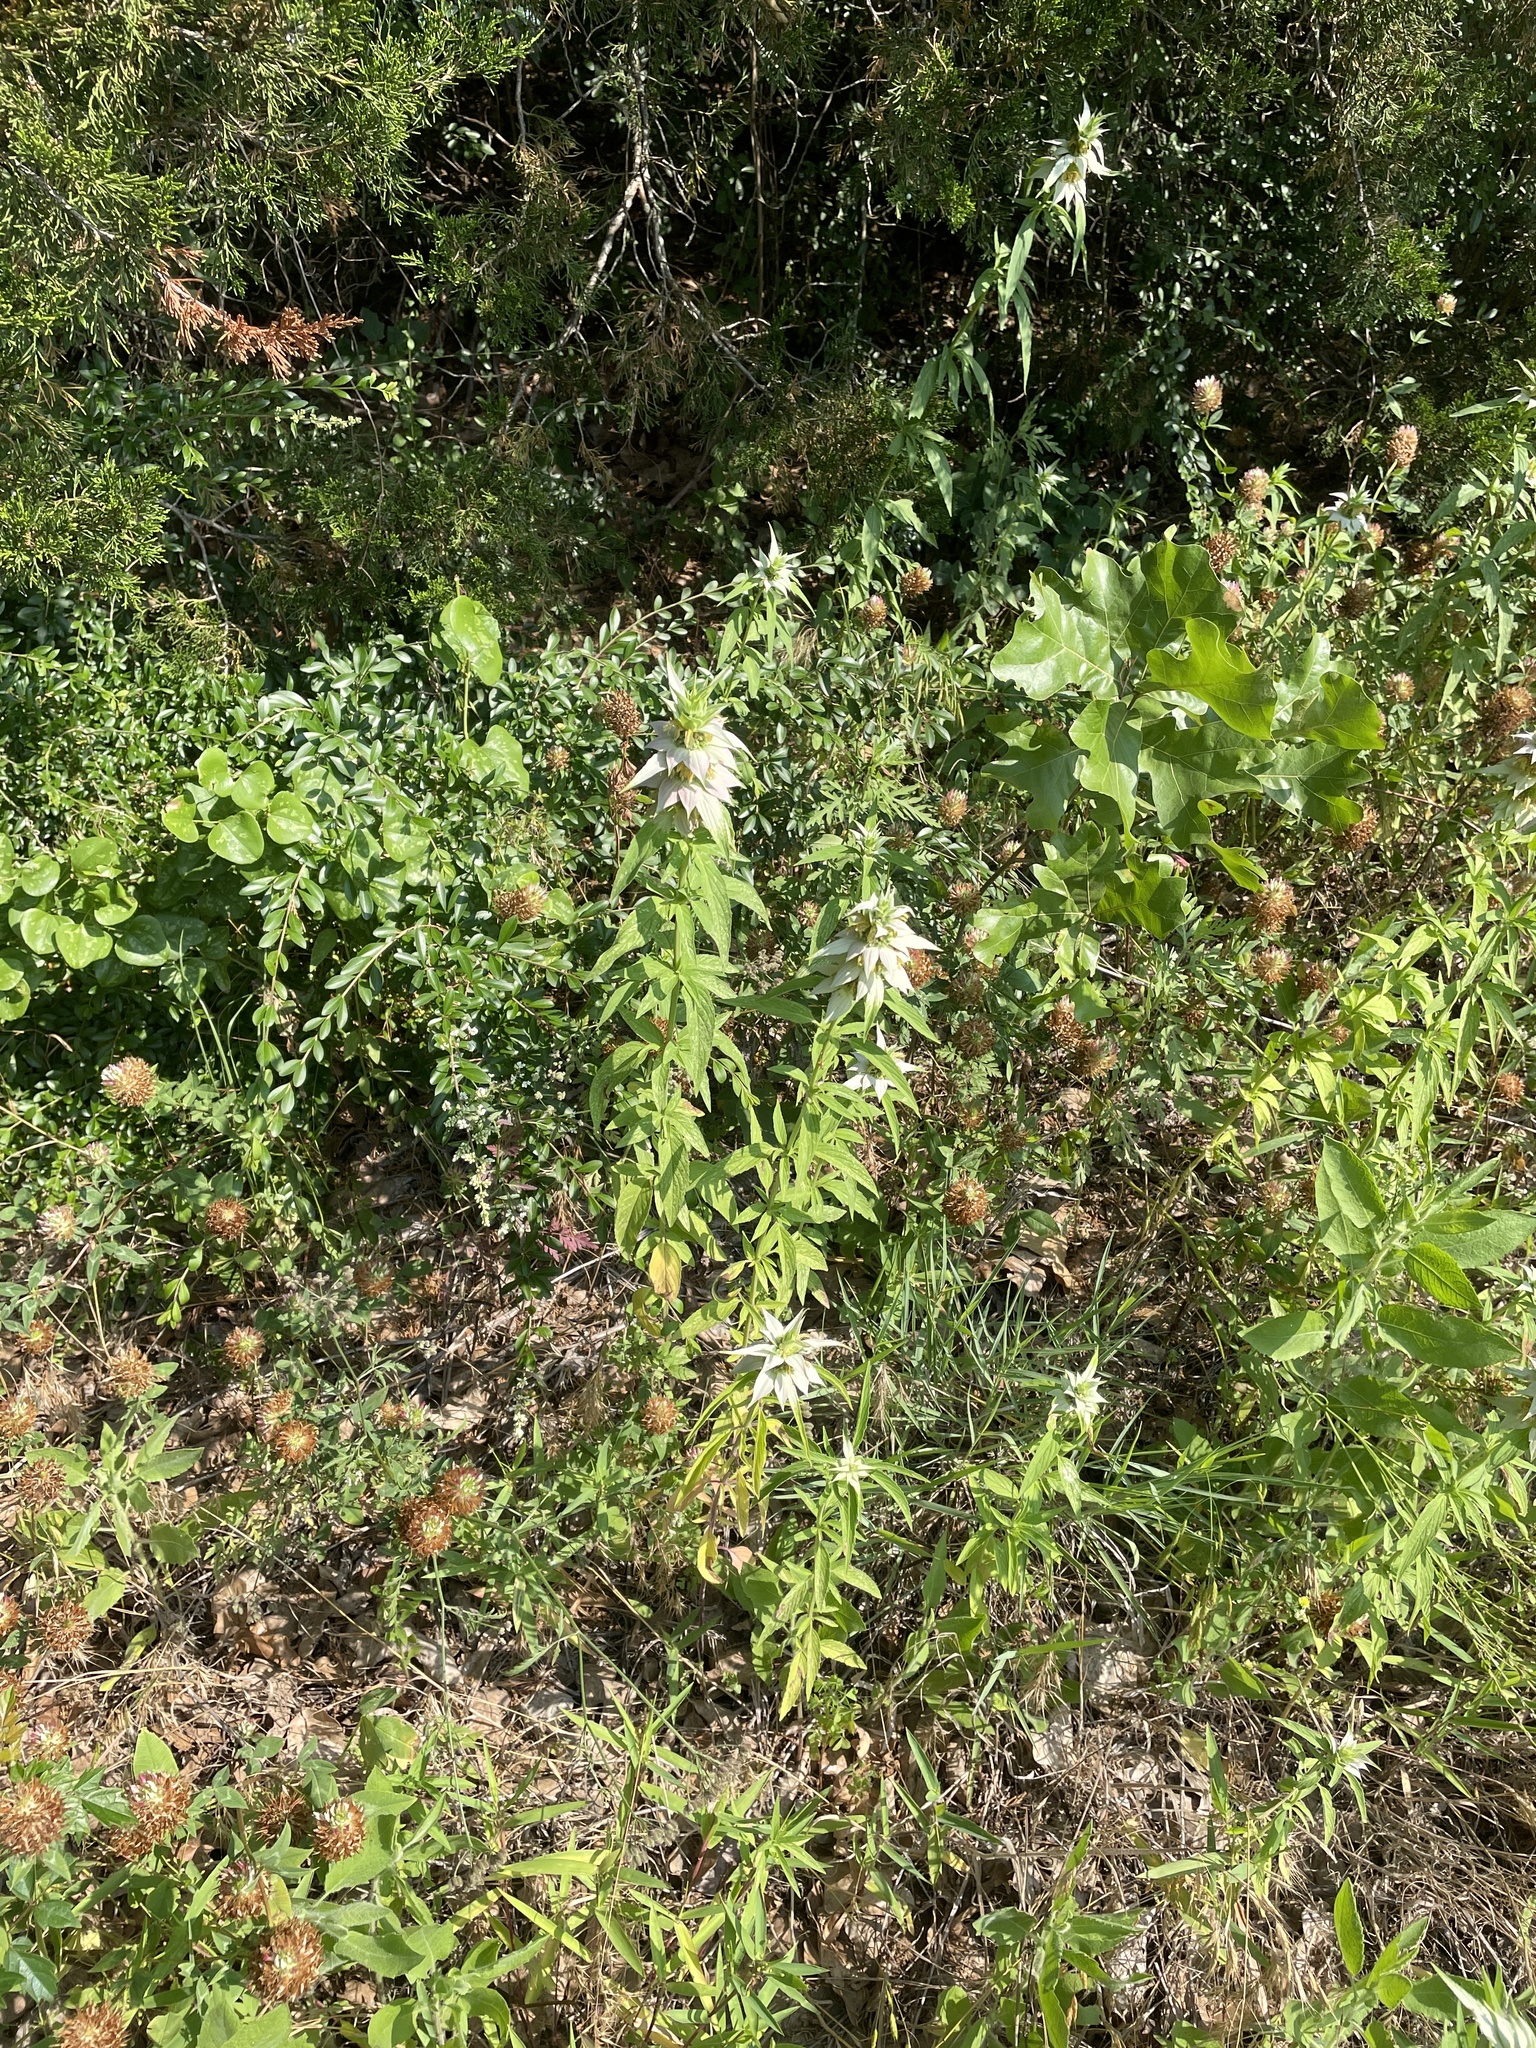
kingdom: Plantae
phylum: Tracheophyta
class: Magnoliopsida
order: Lamiales
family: Lamiaceae
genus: Monarda
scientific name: Monarda punctata
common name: Dotted monarda
